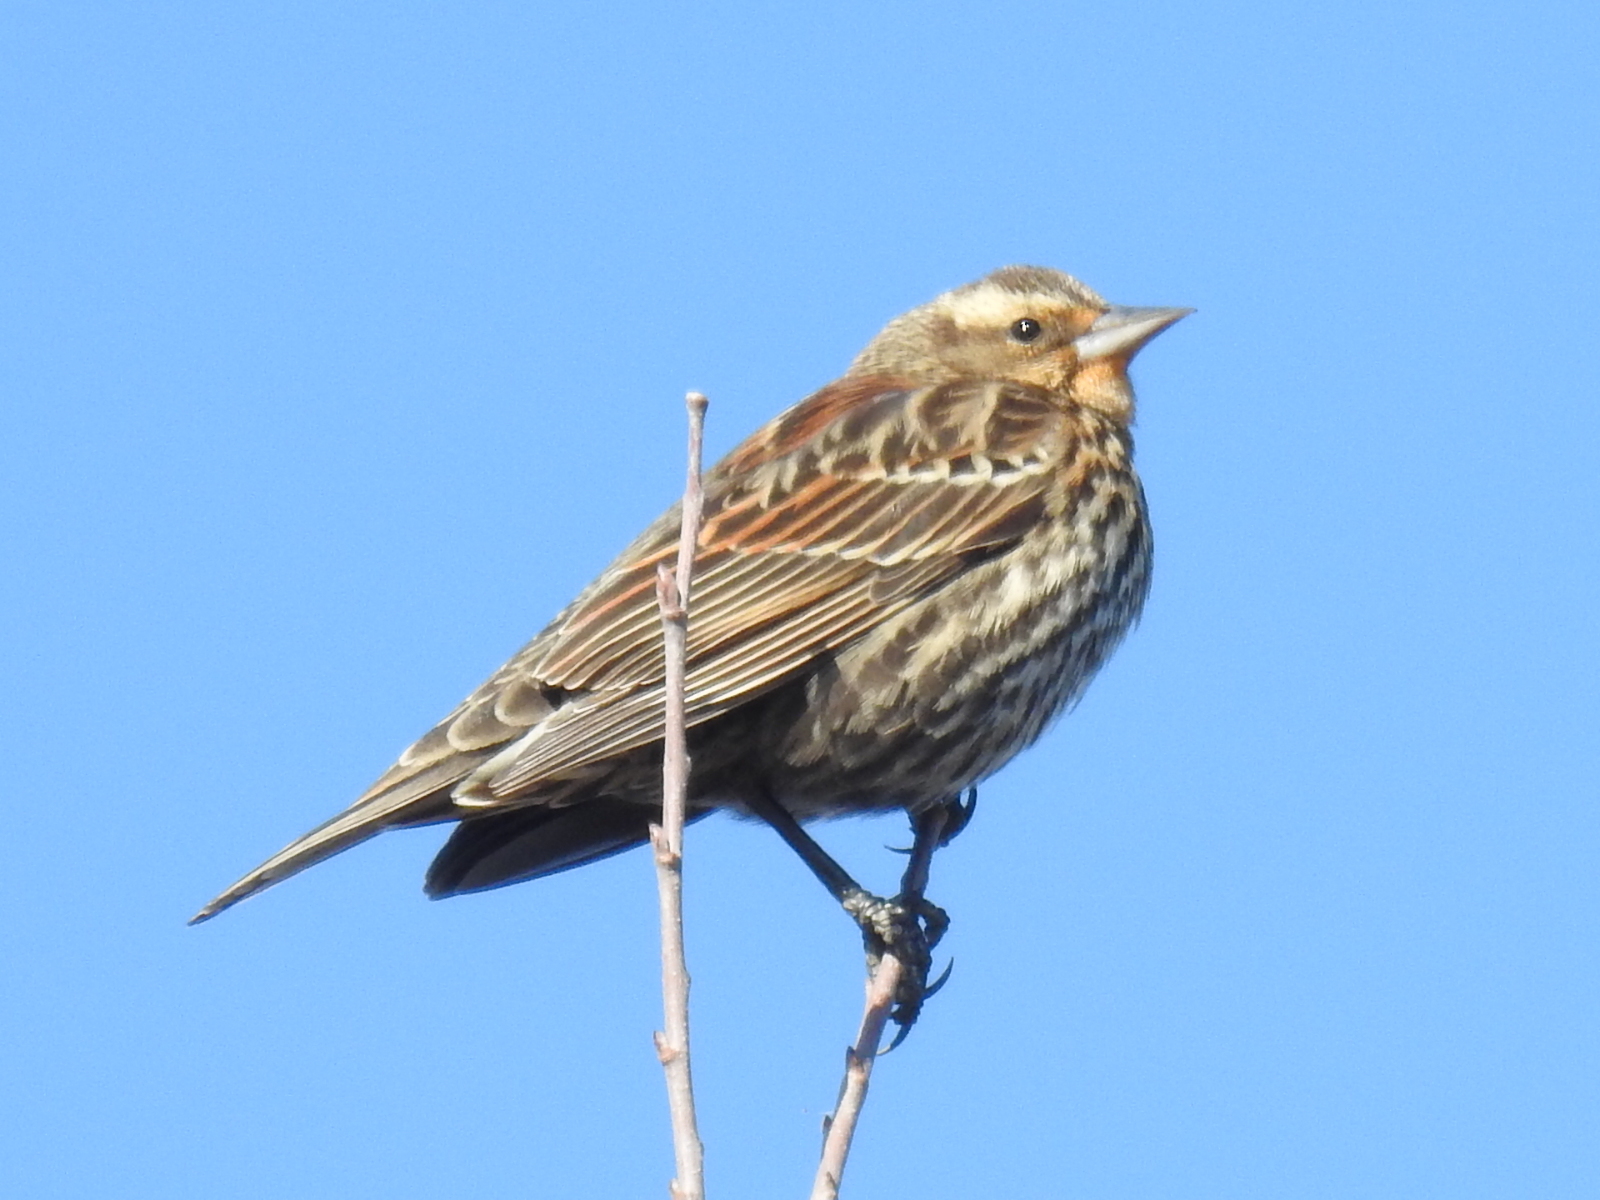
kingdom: Animalia
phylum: Chordata
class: Aves
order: Passeriformes
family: Icteridae
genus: Agelaius
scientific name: Agelaius phoeniceus
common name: Red-winged blackbird
